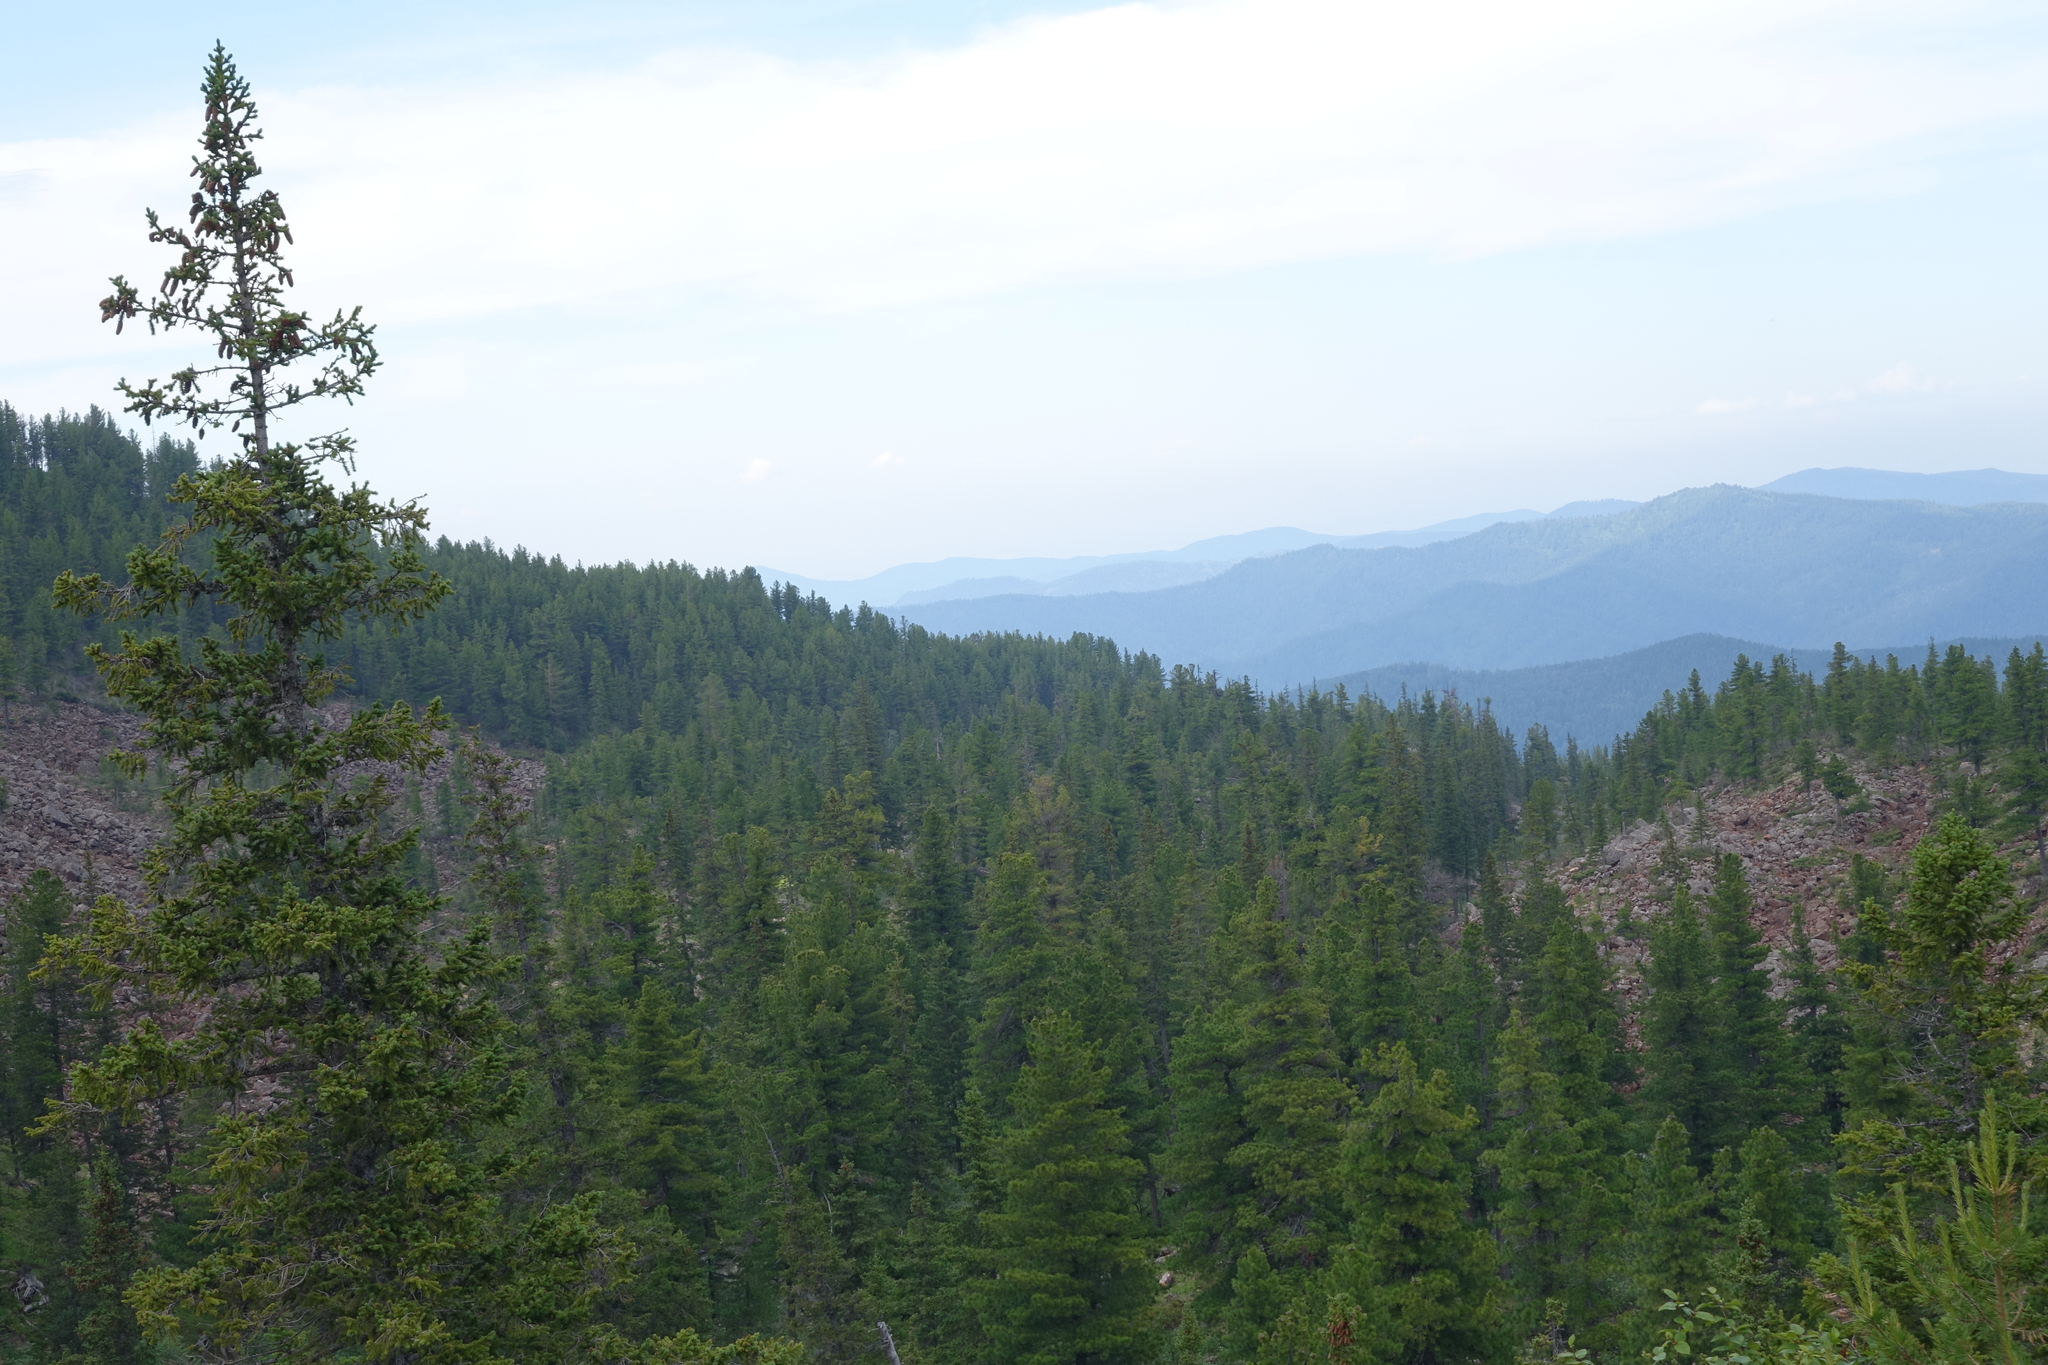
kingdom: Plantae
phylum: Tracheophyta
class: Pinopsida
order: Pinales
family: Pinaceae
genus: Picea
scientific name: Picea obovata
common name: Siberian spruce
